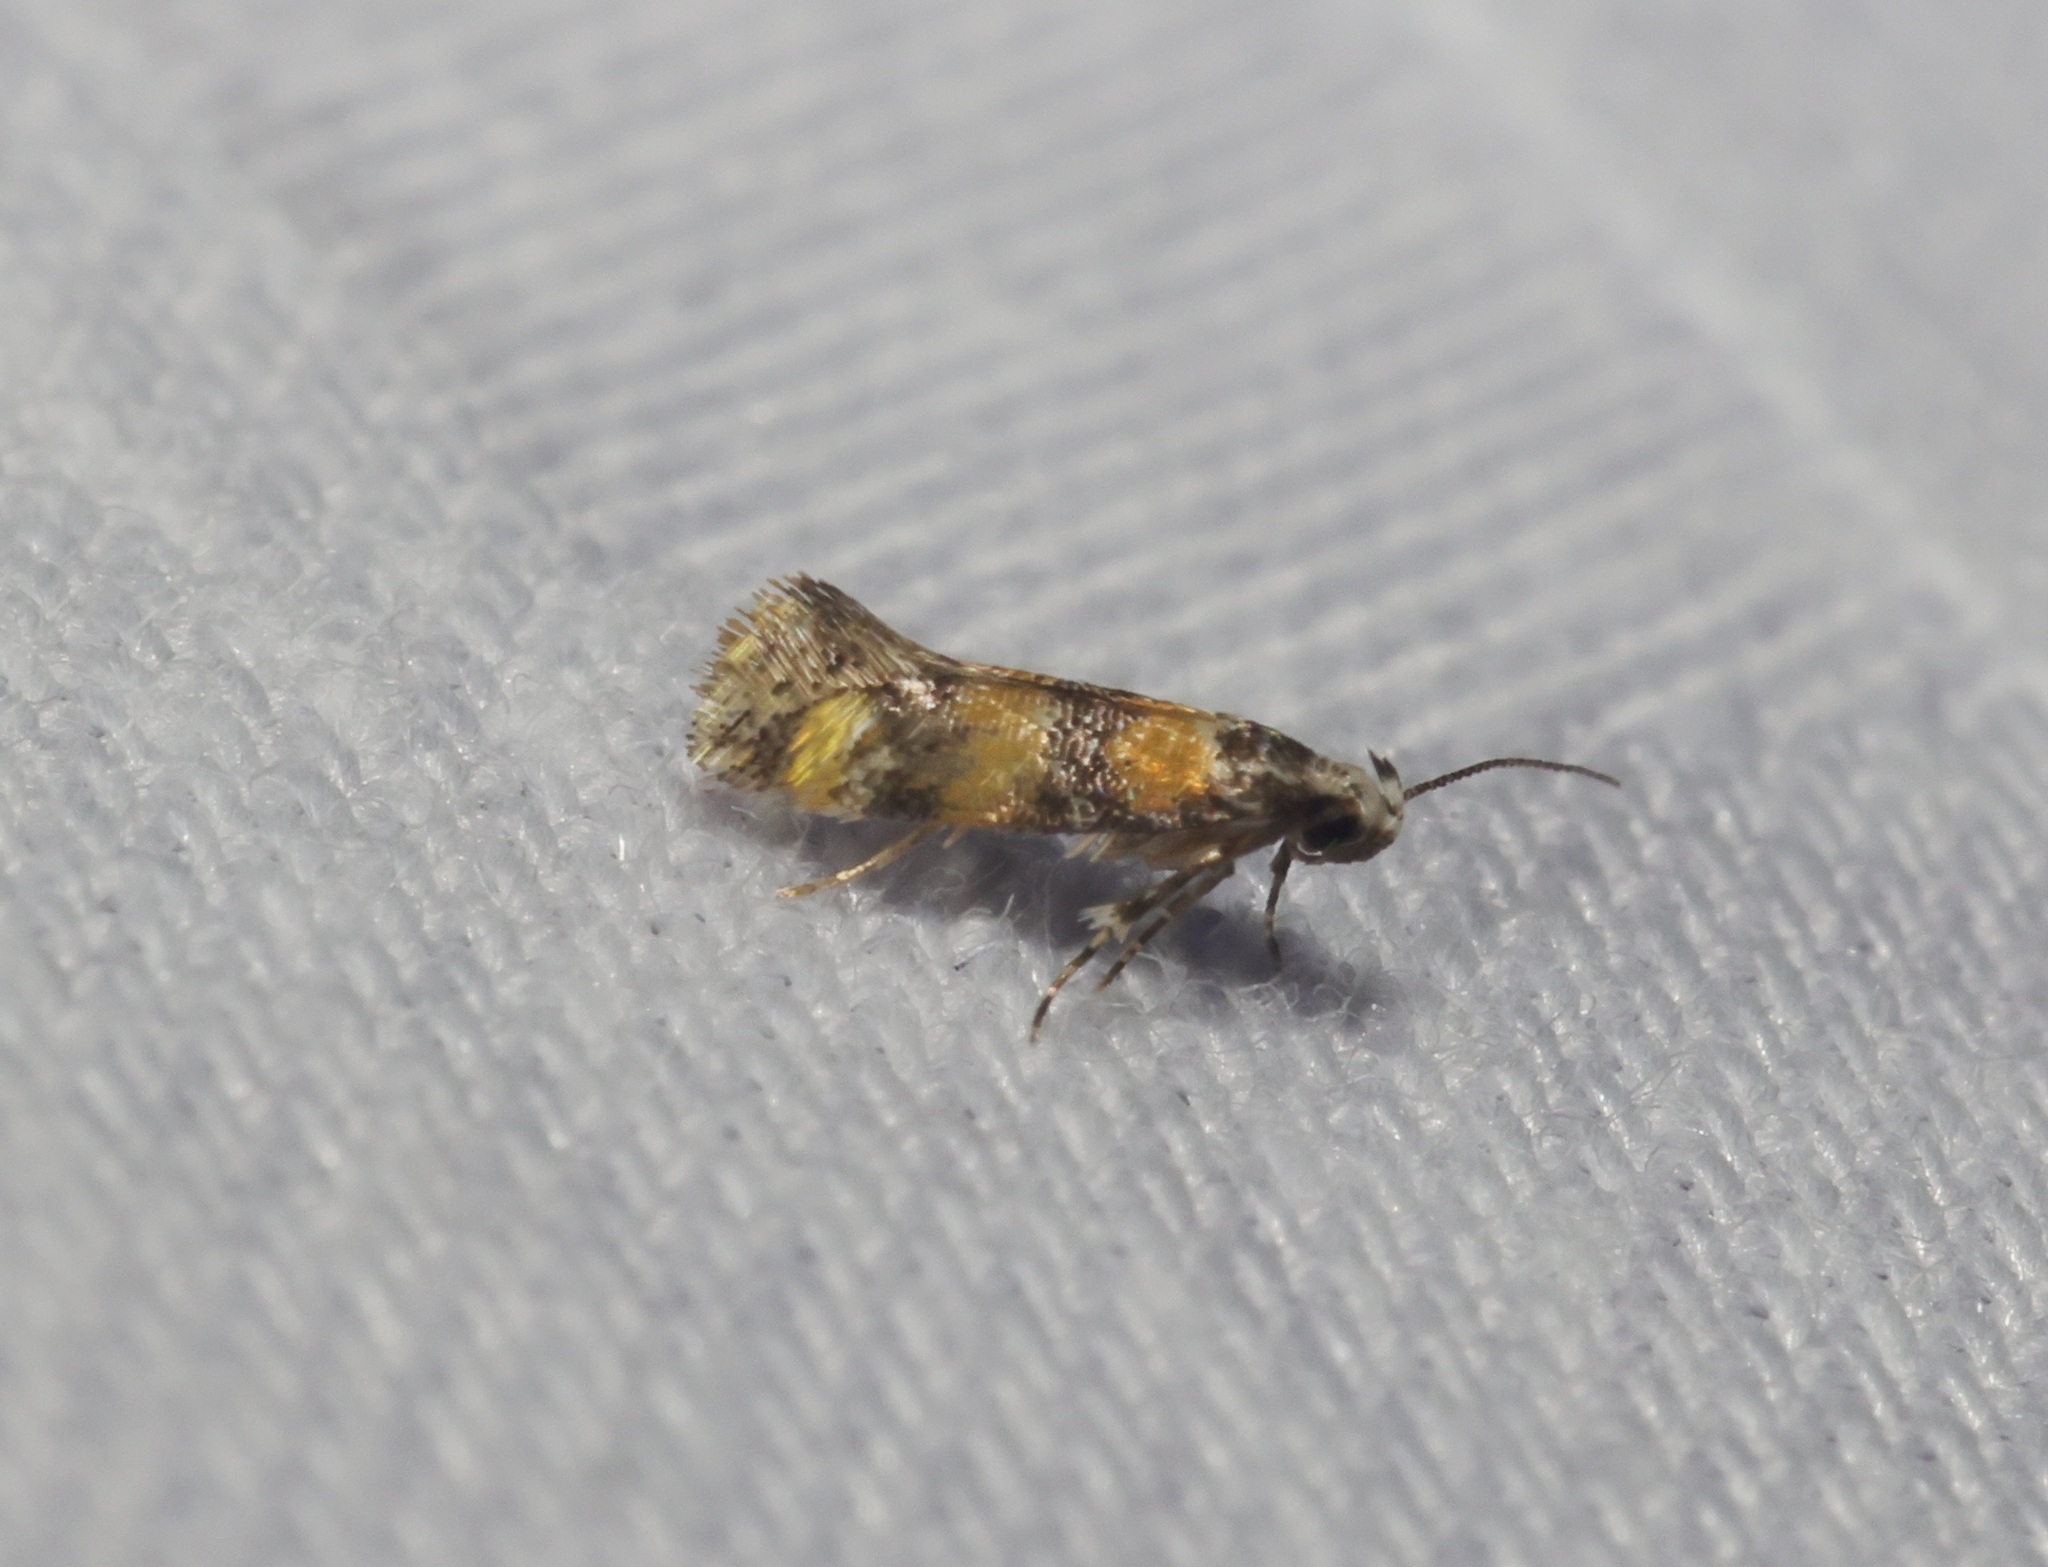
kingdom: Animalia
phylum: Arthropoda
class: Insecta
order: Lepidoptera
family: Oecophoridae
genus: Promalactis
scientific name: Promalactis lobatifera
